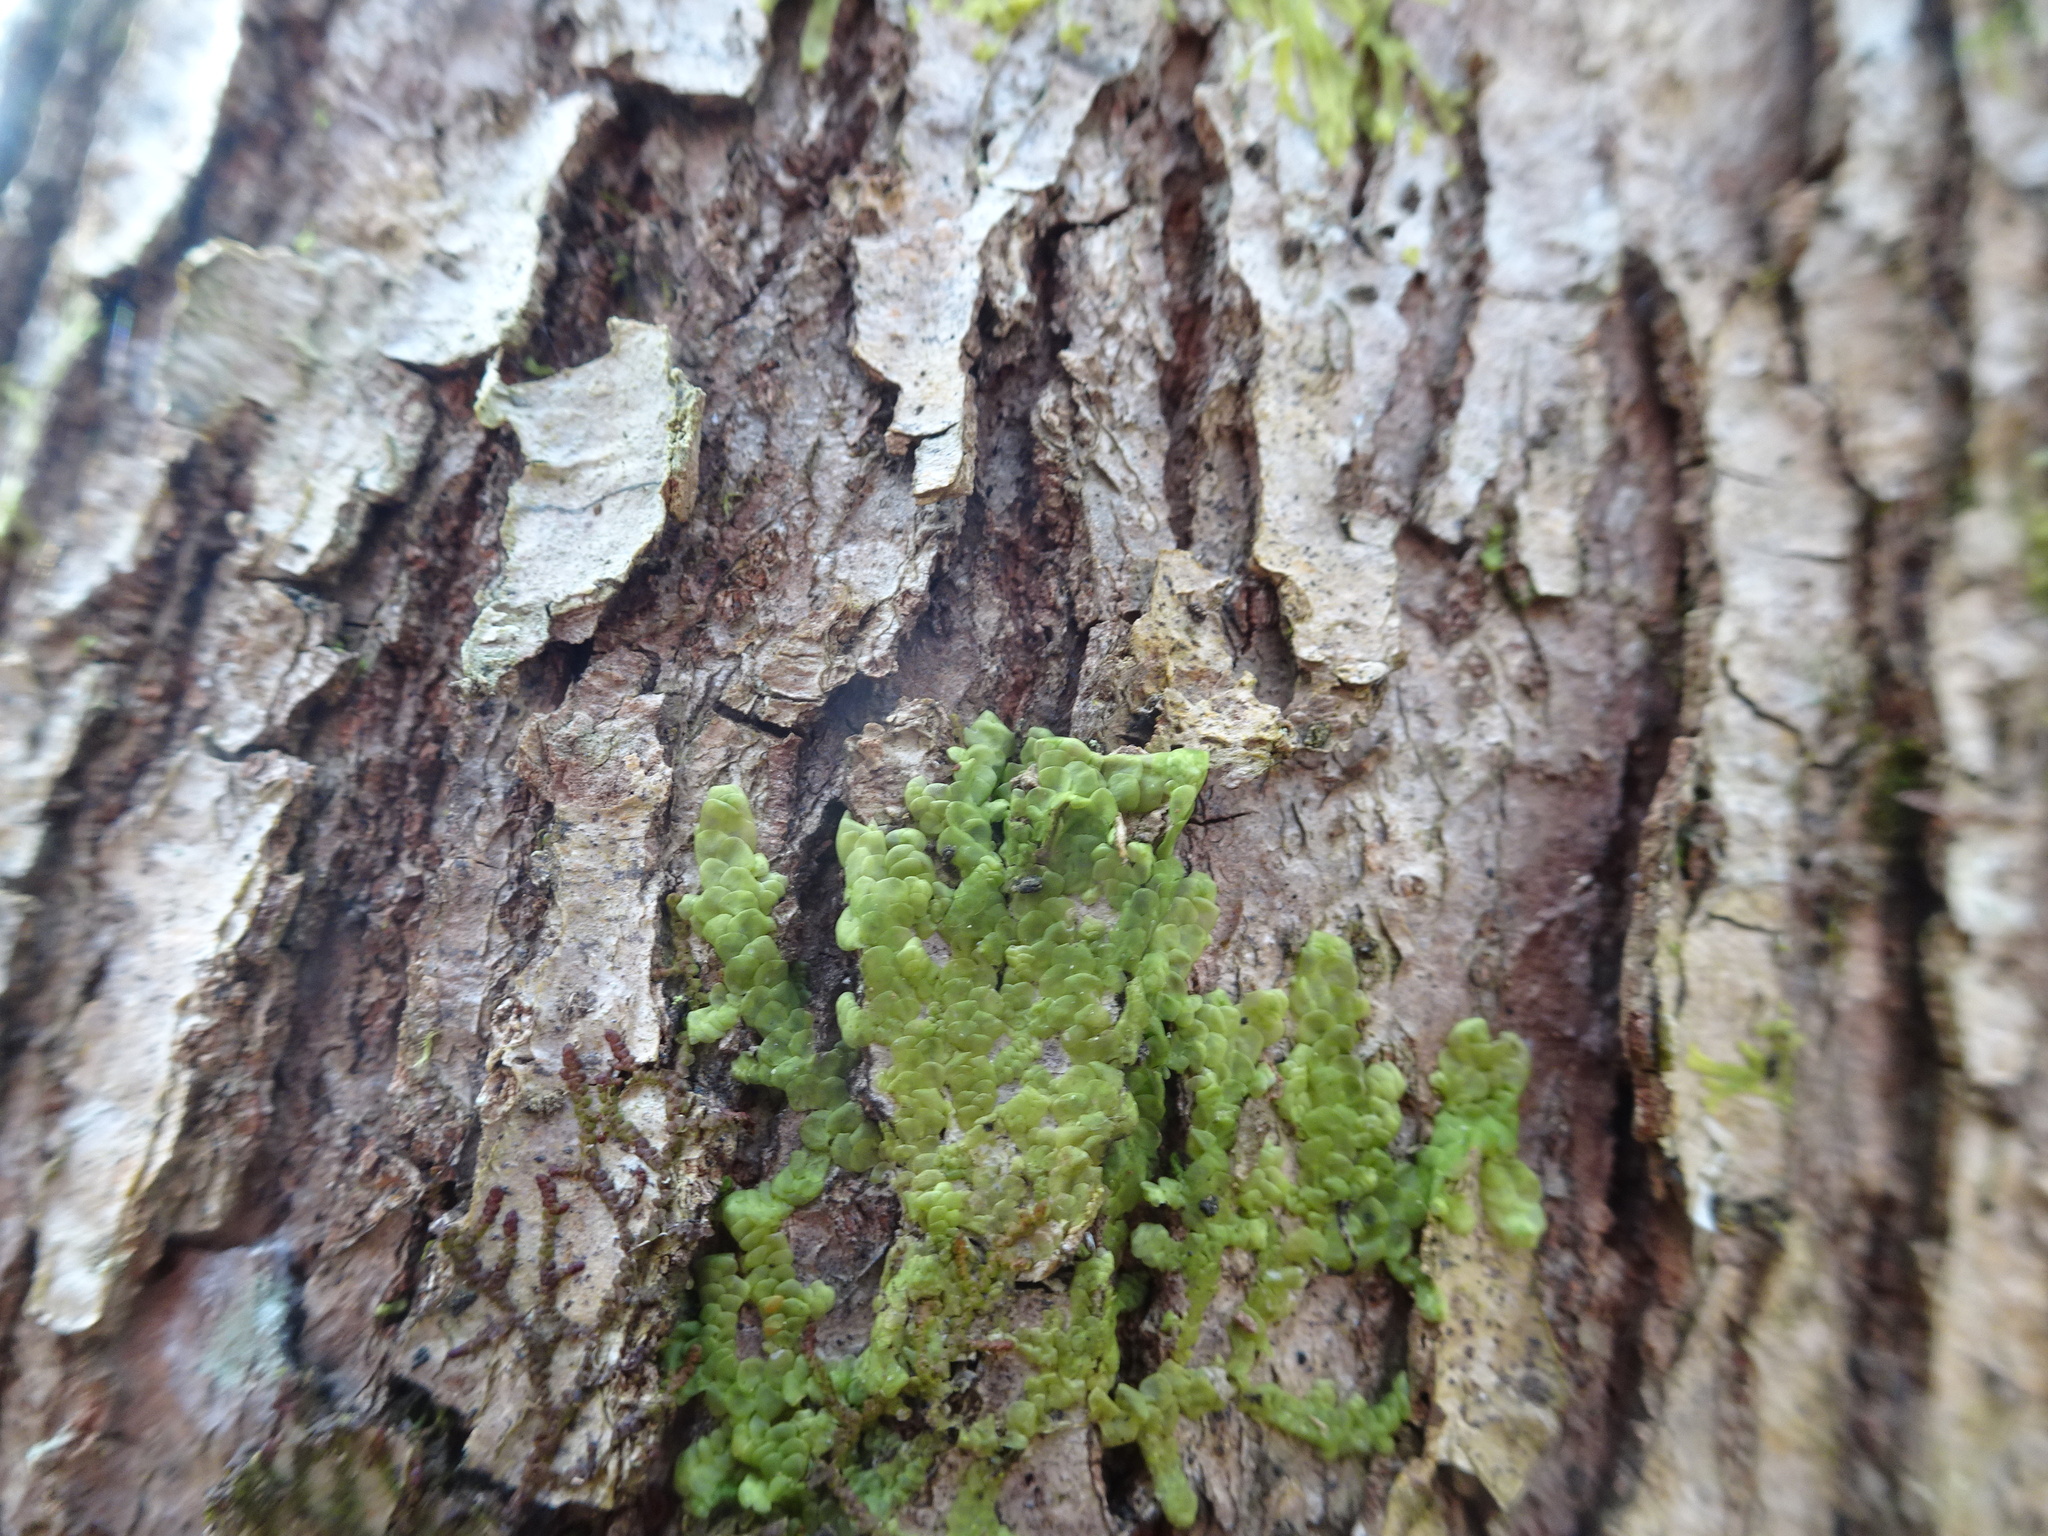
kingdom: Plantae
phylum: Marchantiophyta
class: Jungermanniopsida
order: Porellales
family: Radulaceae
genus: Radula
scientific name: Radula complanata
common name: Flat-leaved scalewort
